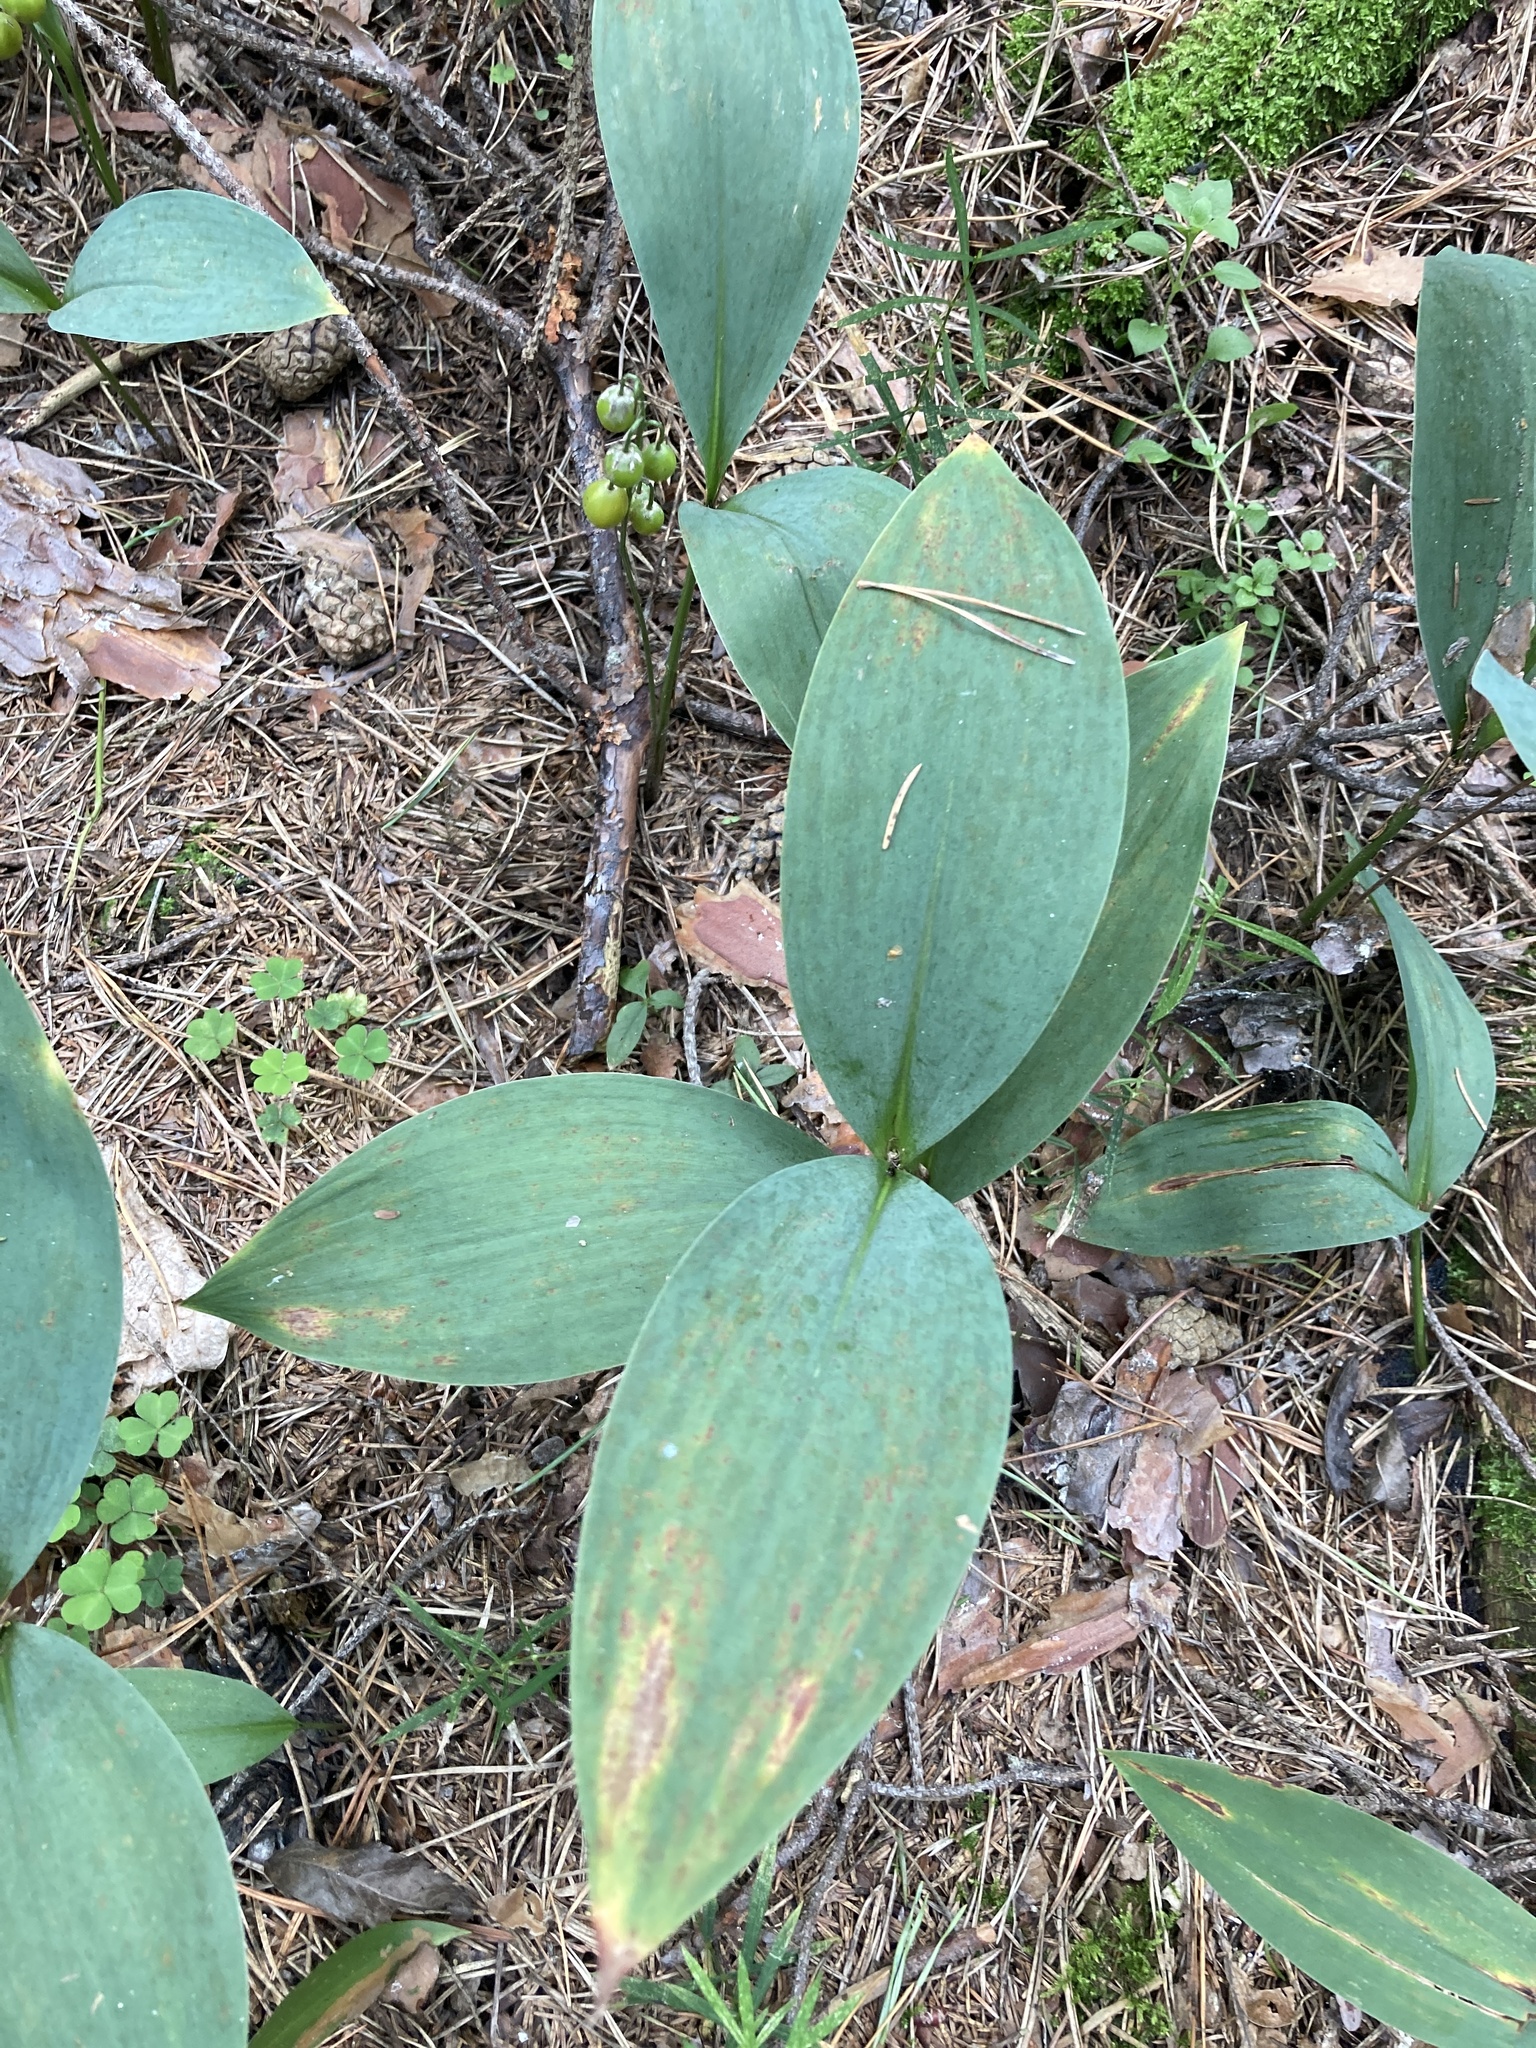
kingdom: Plantae
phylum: Tracheophyta
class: Liliopsida
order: Asparagales
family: Asparagaceae
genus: Convallaria
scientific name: Convallaria majalis
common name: Lily-of-the-valley
